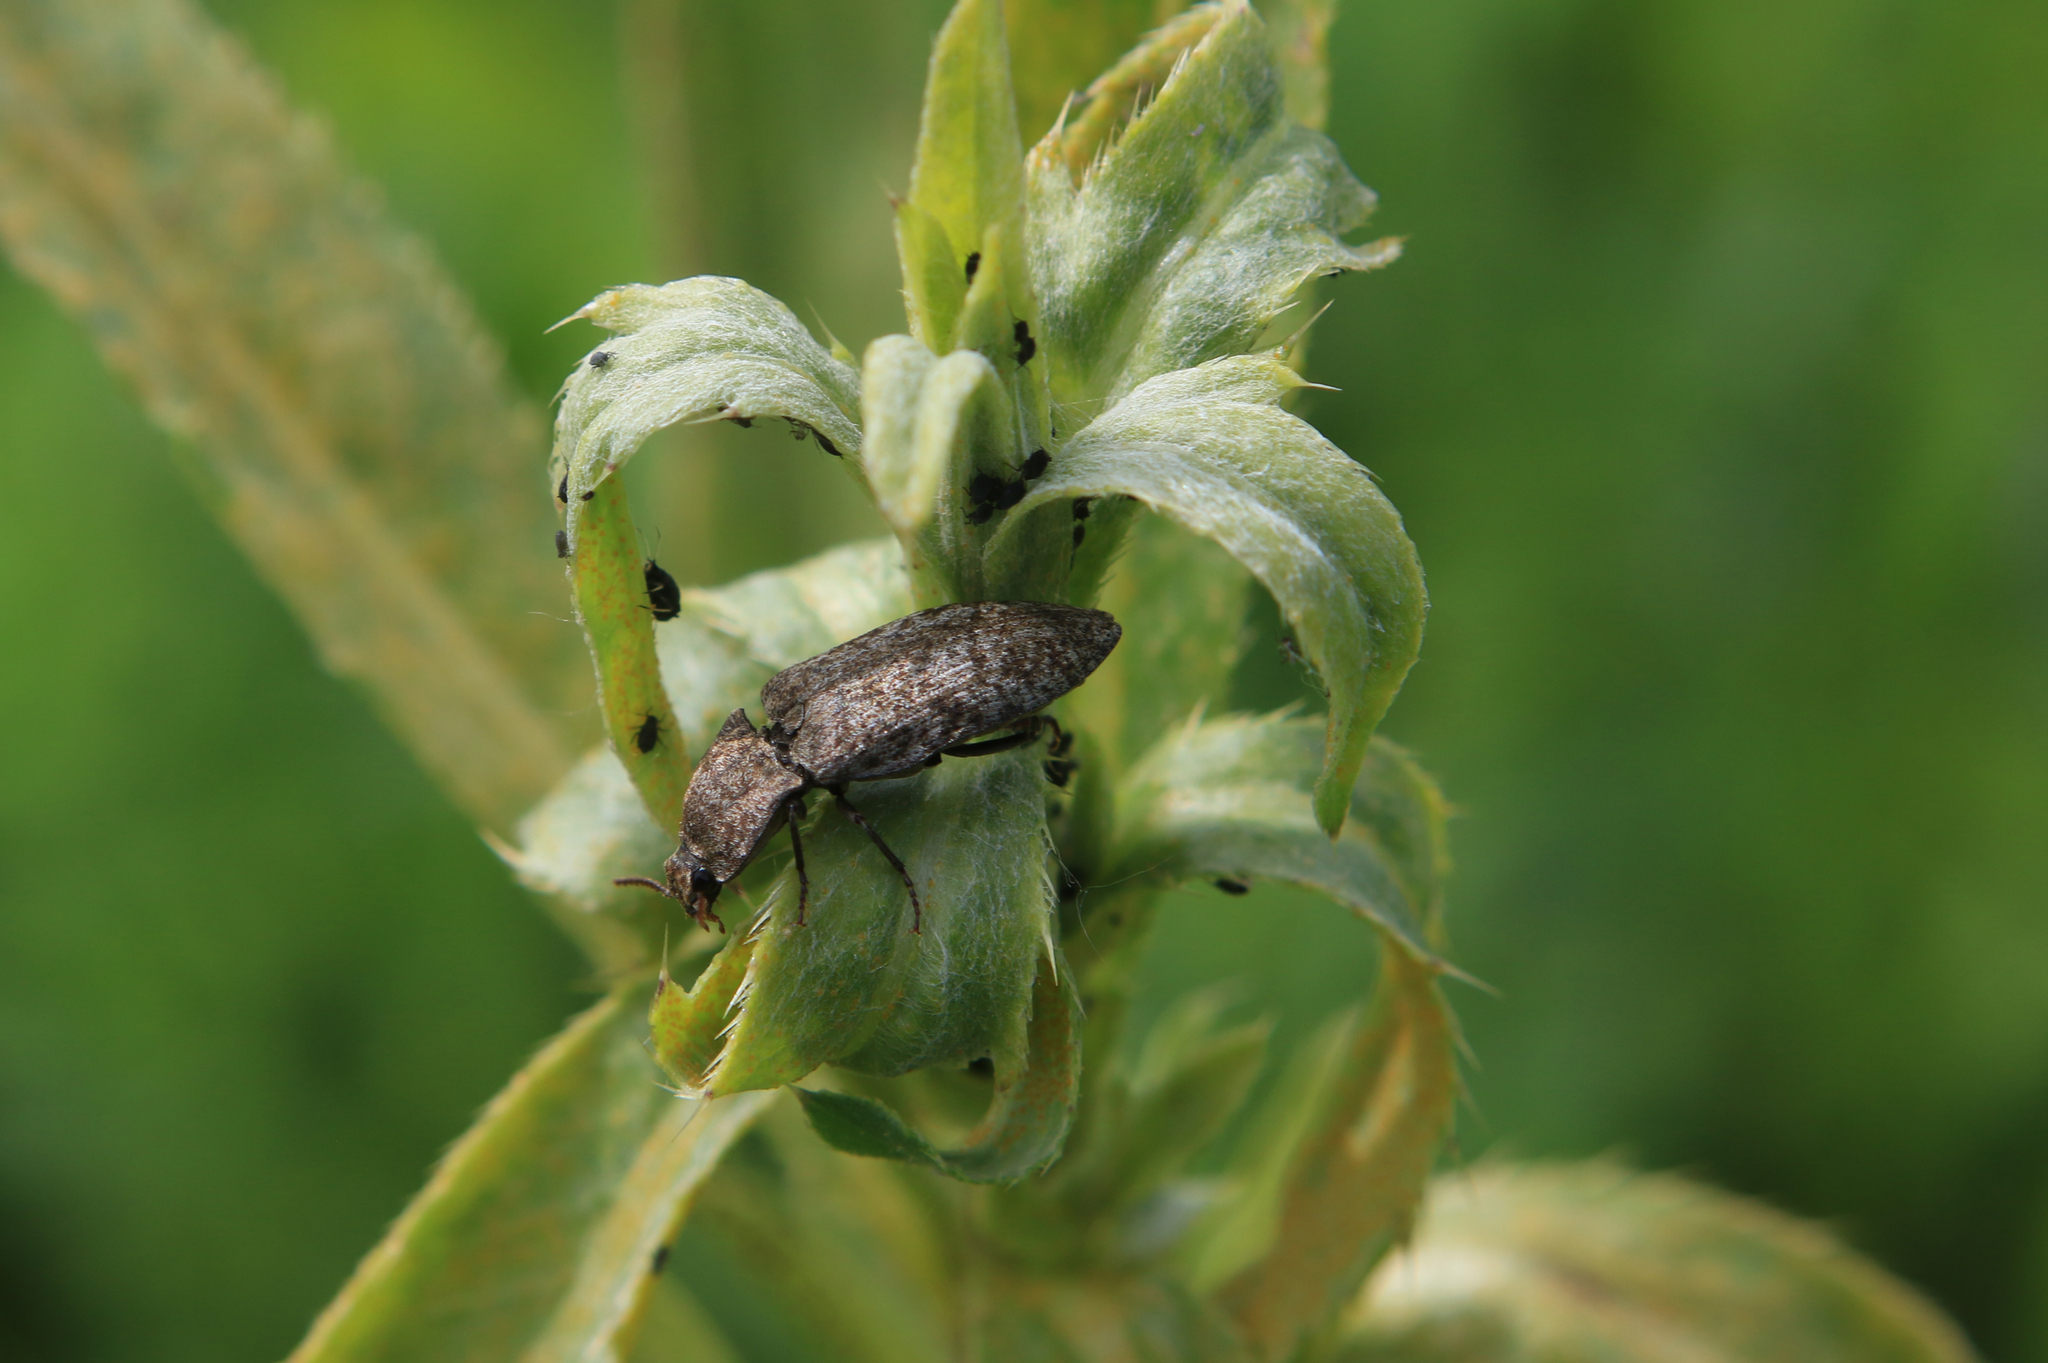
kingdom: Animalia
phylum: Arthropoda
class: Insecta
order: Coleoptera
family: Elateridae
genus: Agrypnus
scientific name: Agrypnus murinus
